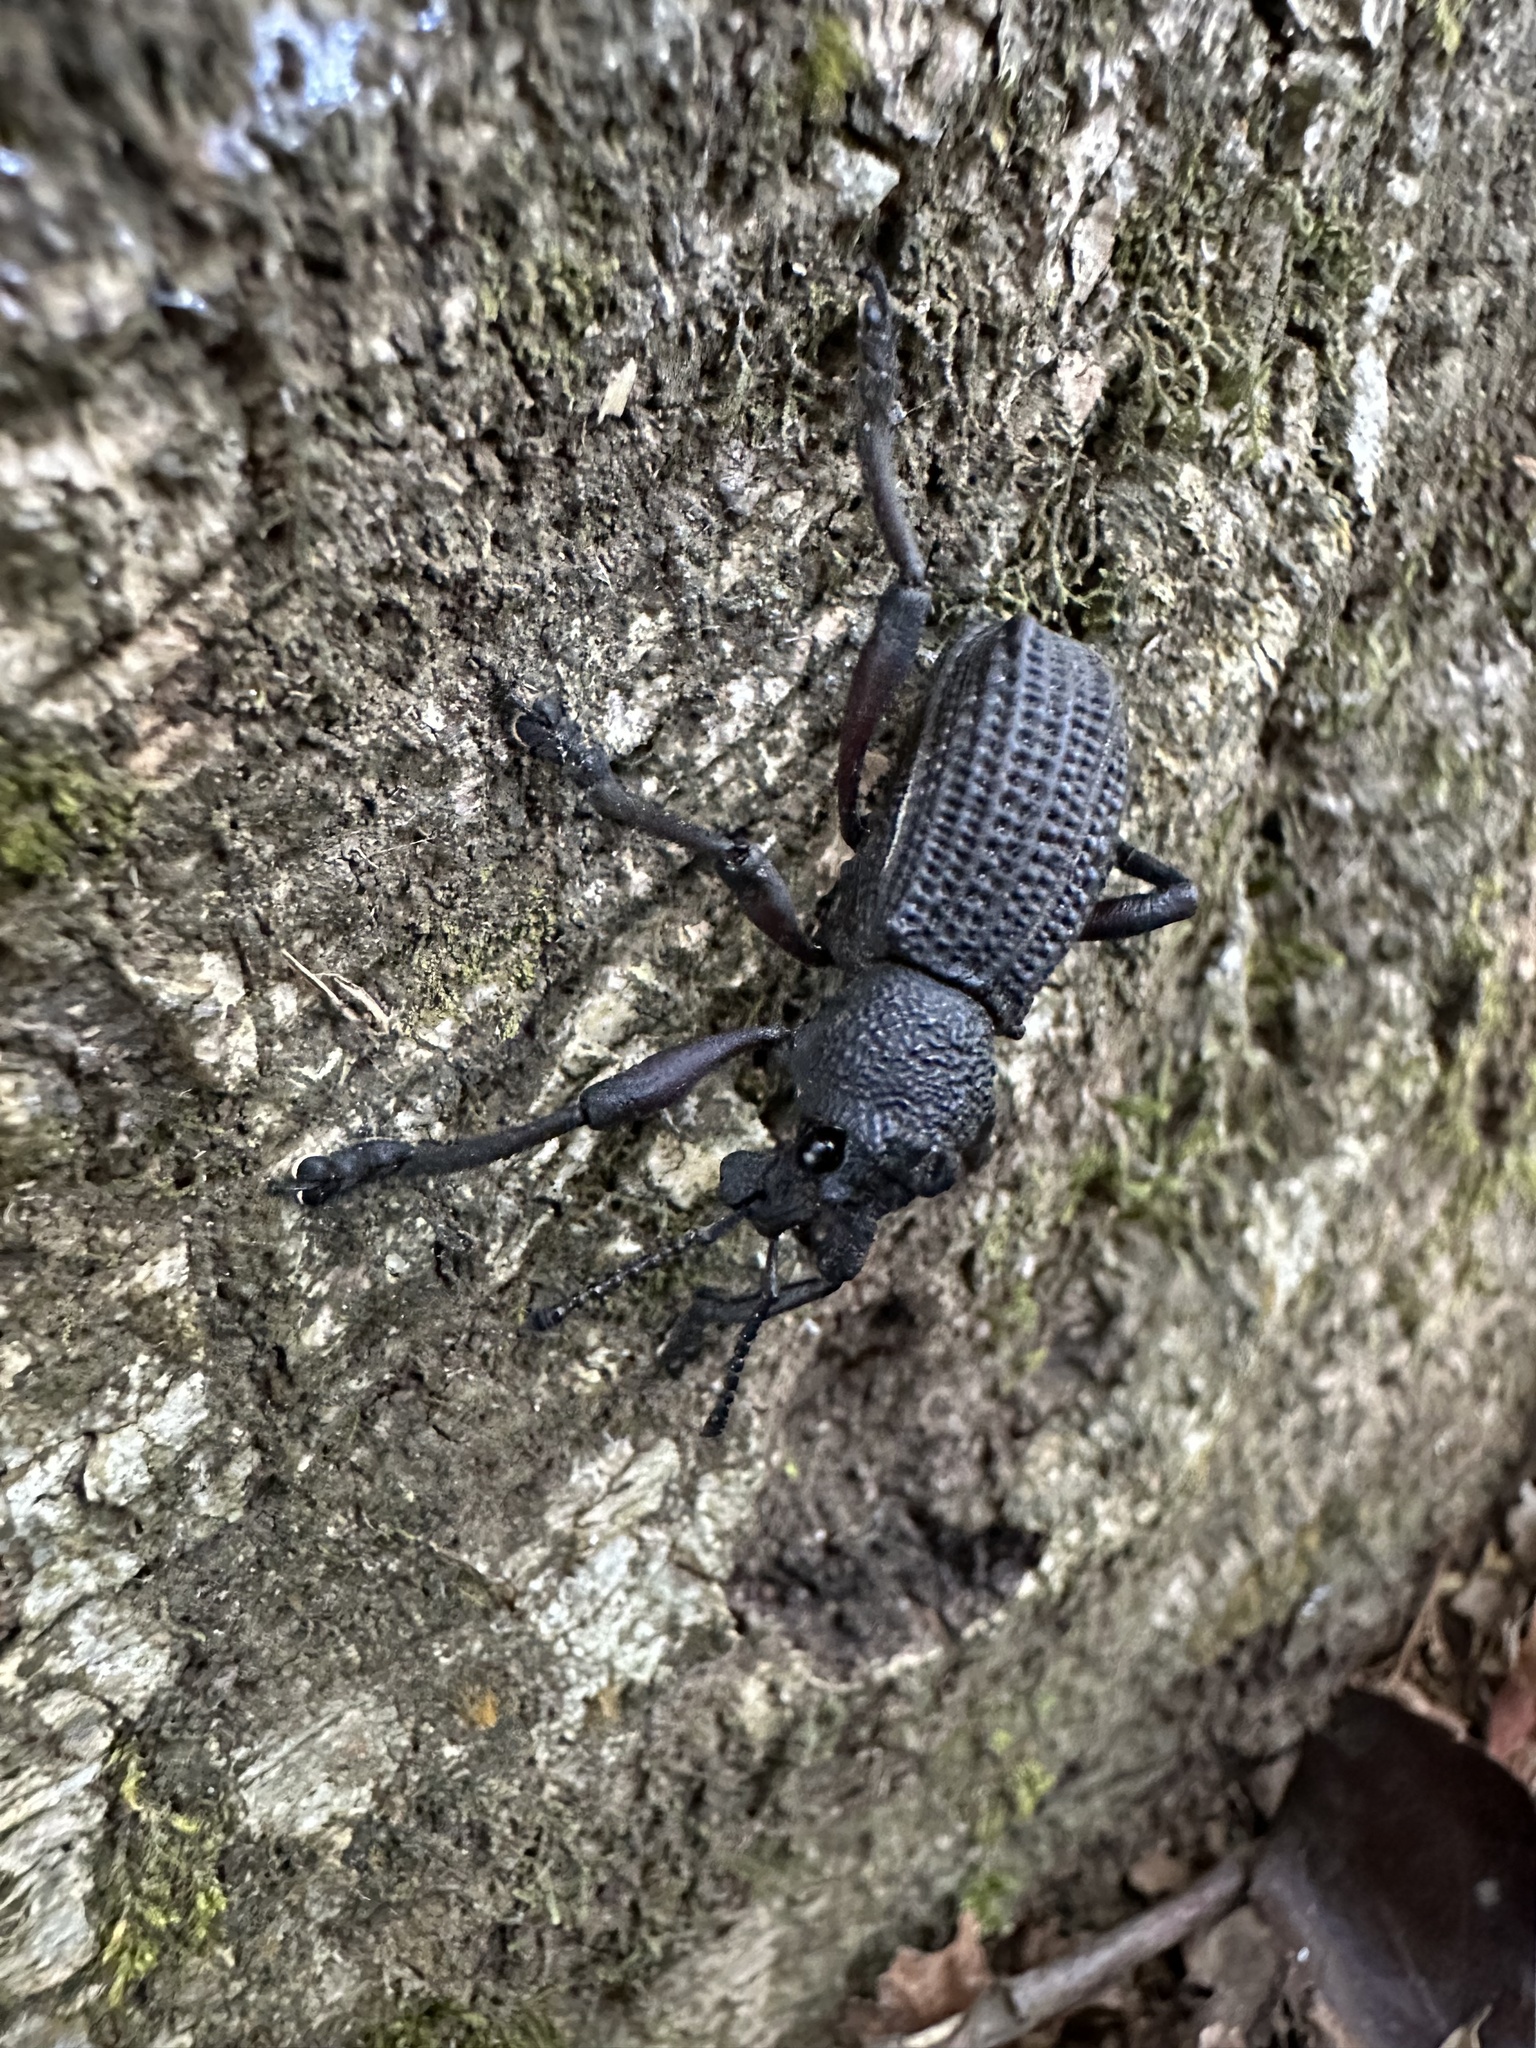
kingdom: Animalia
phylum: Arthropoda
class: Insecta
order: Coleoptera
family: Curculionidae
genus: Aegorhinus
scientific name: Aegorhinus
